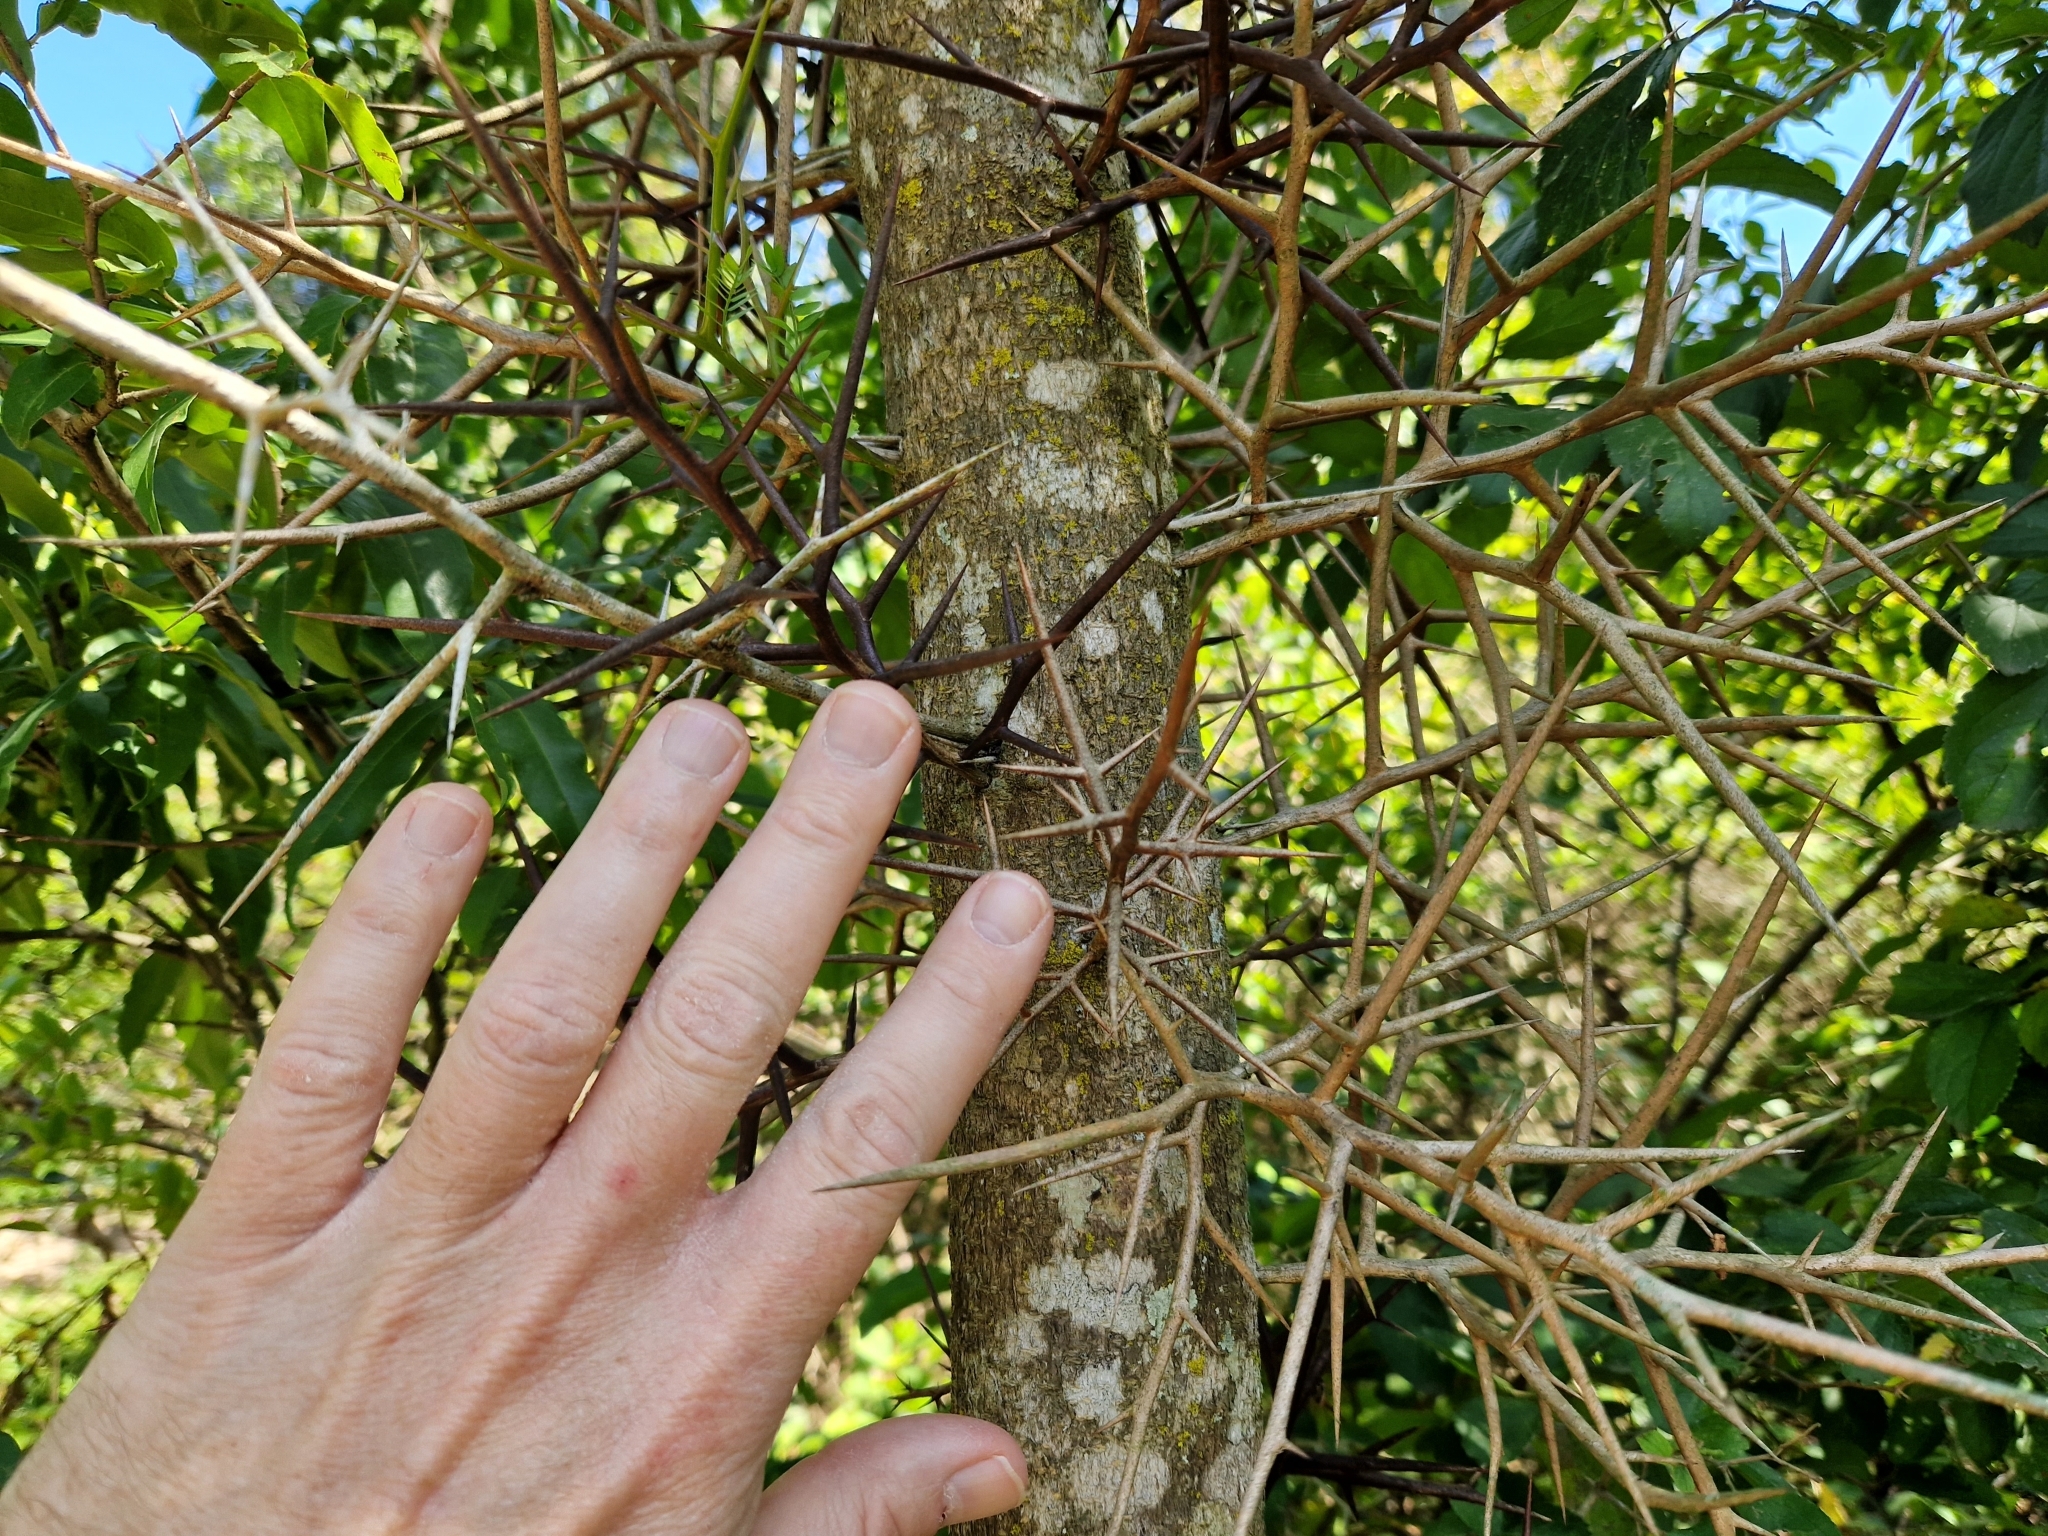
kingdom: Plantae
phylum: Tracheophyta
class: Magnoliopsida
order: Fabales
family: Fabaceae
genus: Gleditsia
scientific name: Gleditsia amorphoides
